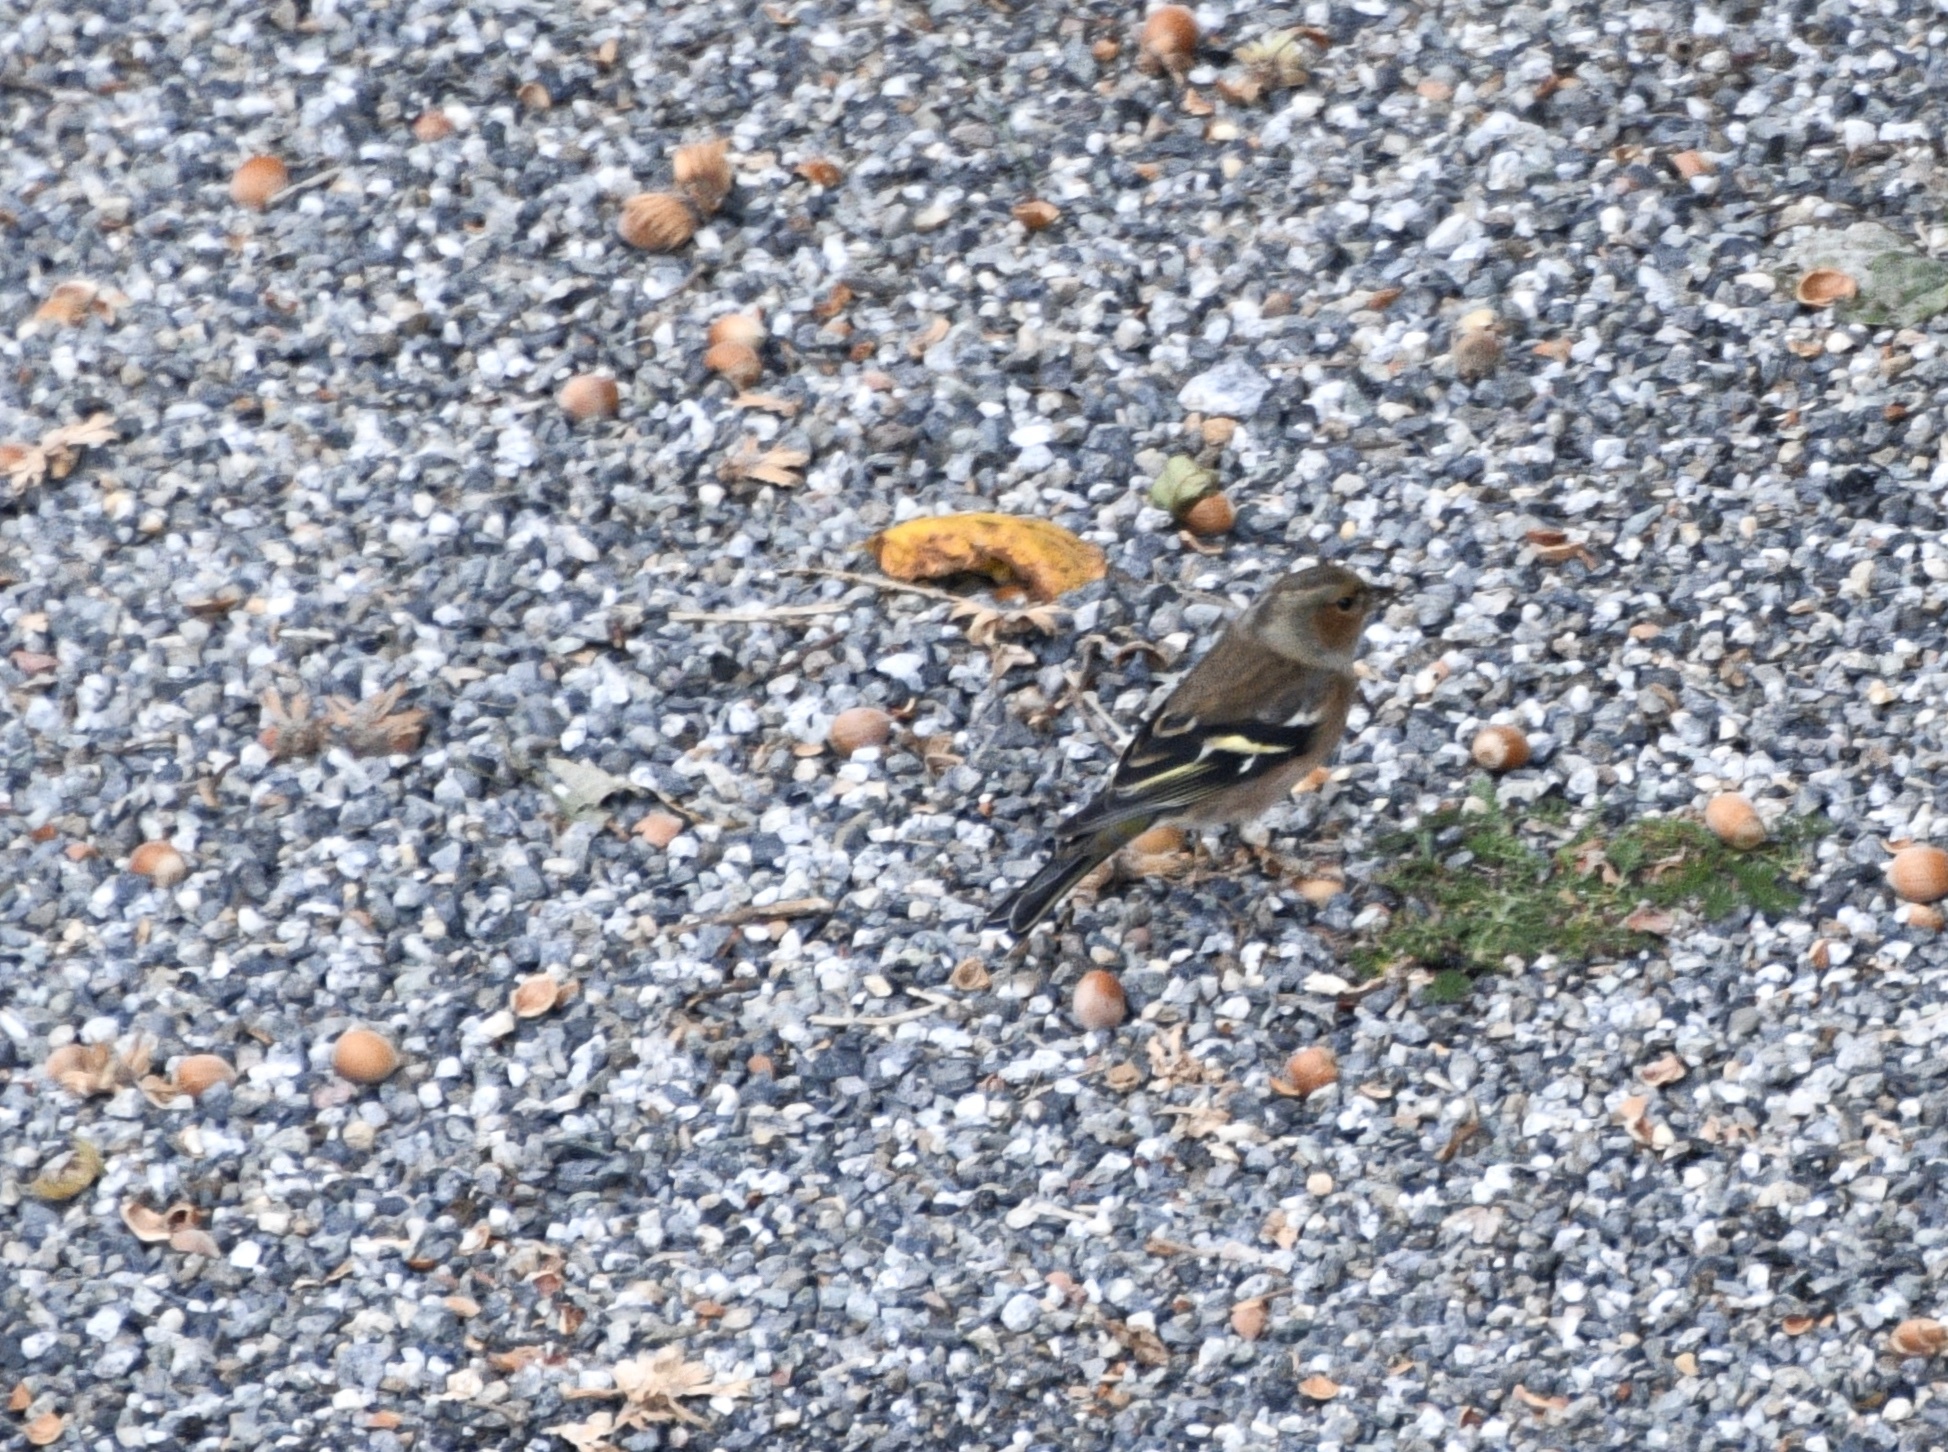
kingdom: Animalia
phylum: Chordata
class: Aves
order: Passeriformes
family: Fringillidae
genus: Fringilla
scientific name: Fringilla coelebs
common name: Common chaffinch
